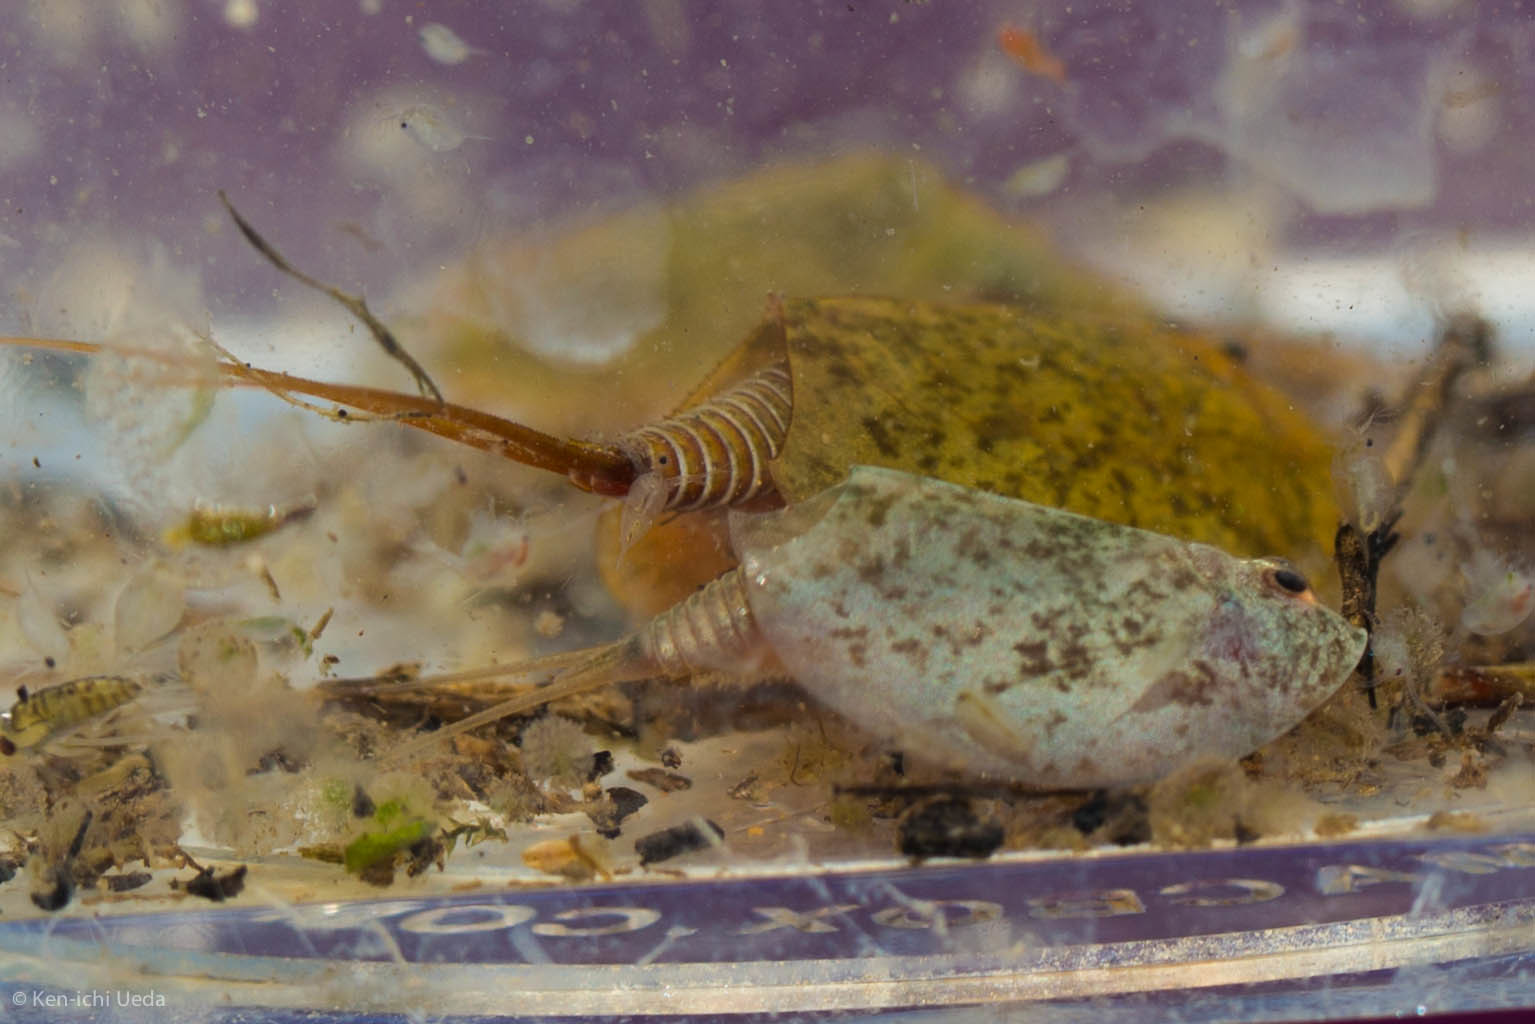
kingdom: Animalia
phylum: Arthropoda
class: Branchiopoda
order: Notostraca
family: Triopsidae
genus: Lepidurus
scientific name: Lepidurus packardi
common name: Vernal pool tadpole shrimp
